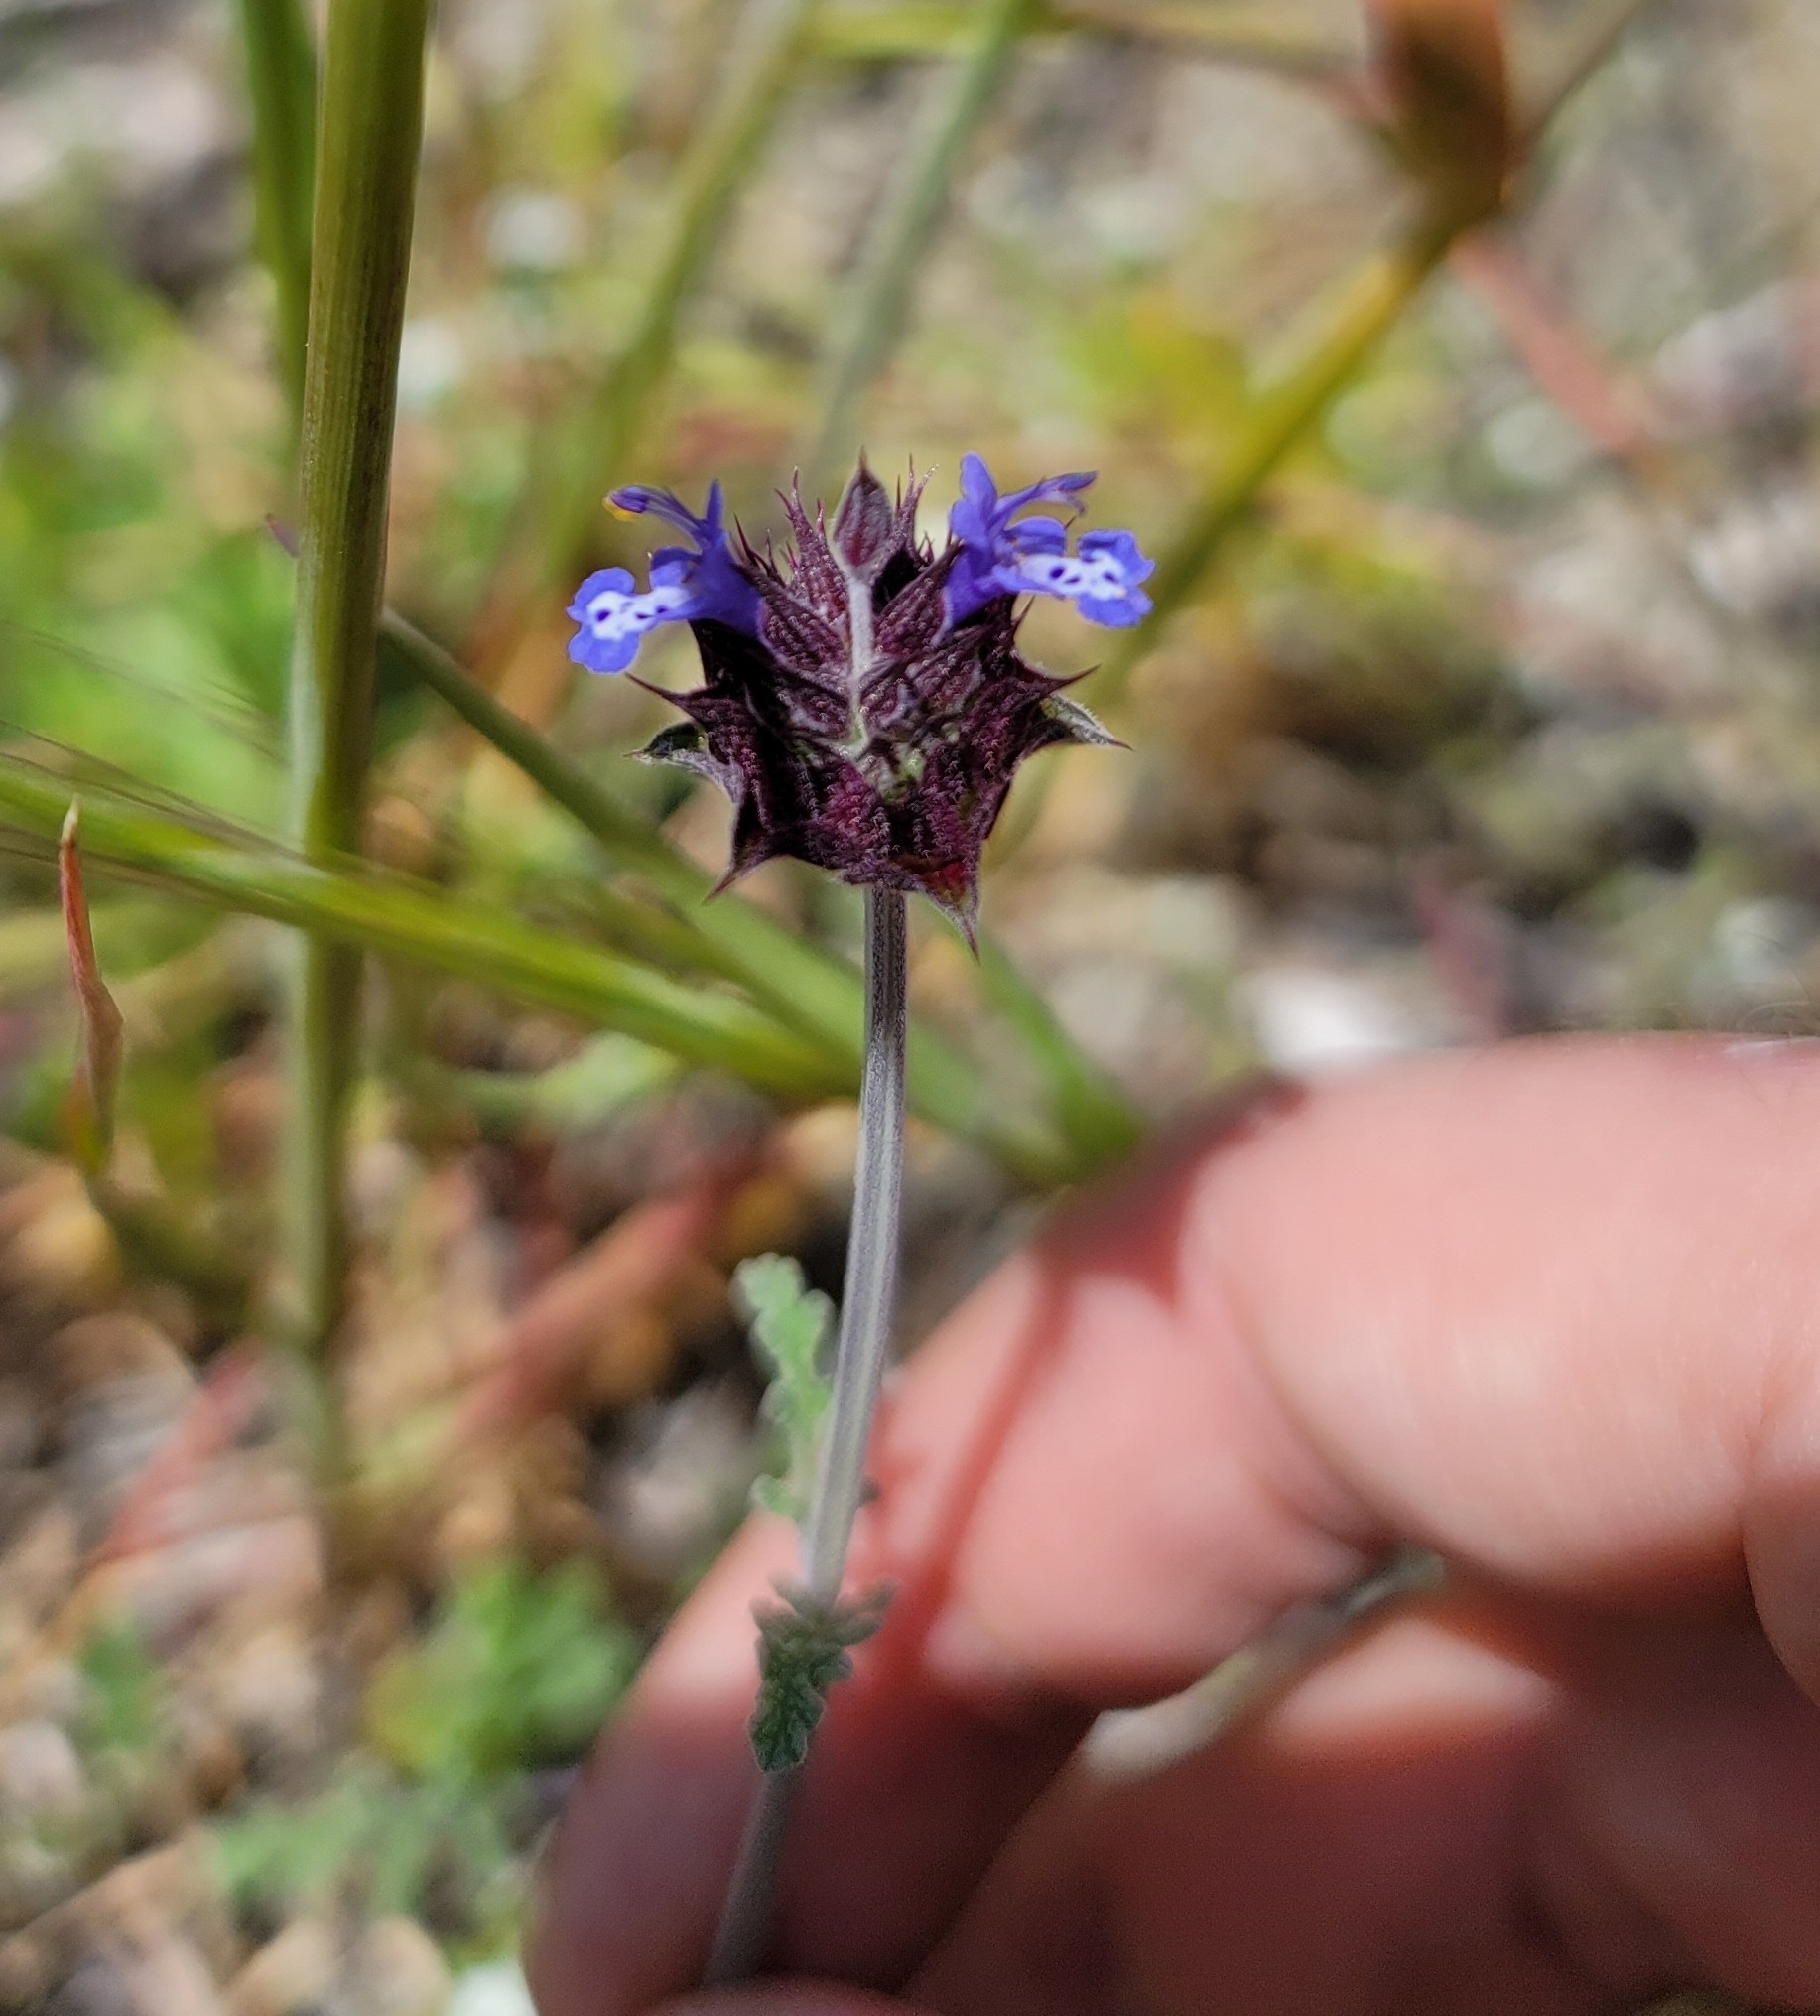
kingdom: Plantae
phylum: Tracheophyta
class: Magnoliopsida
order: Lamiales
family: Lamiaceae
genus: Salvia
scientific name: Salvia columbariae
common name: Chia
